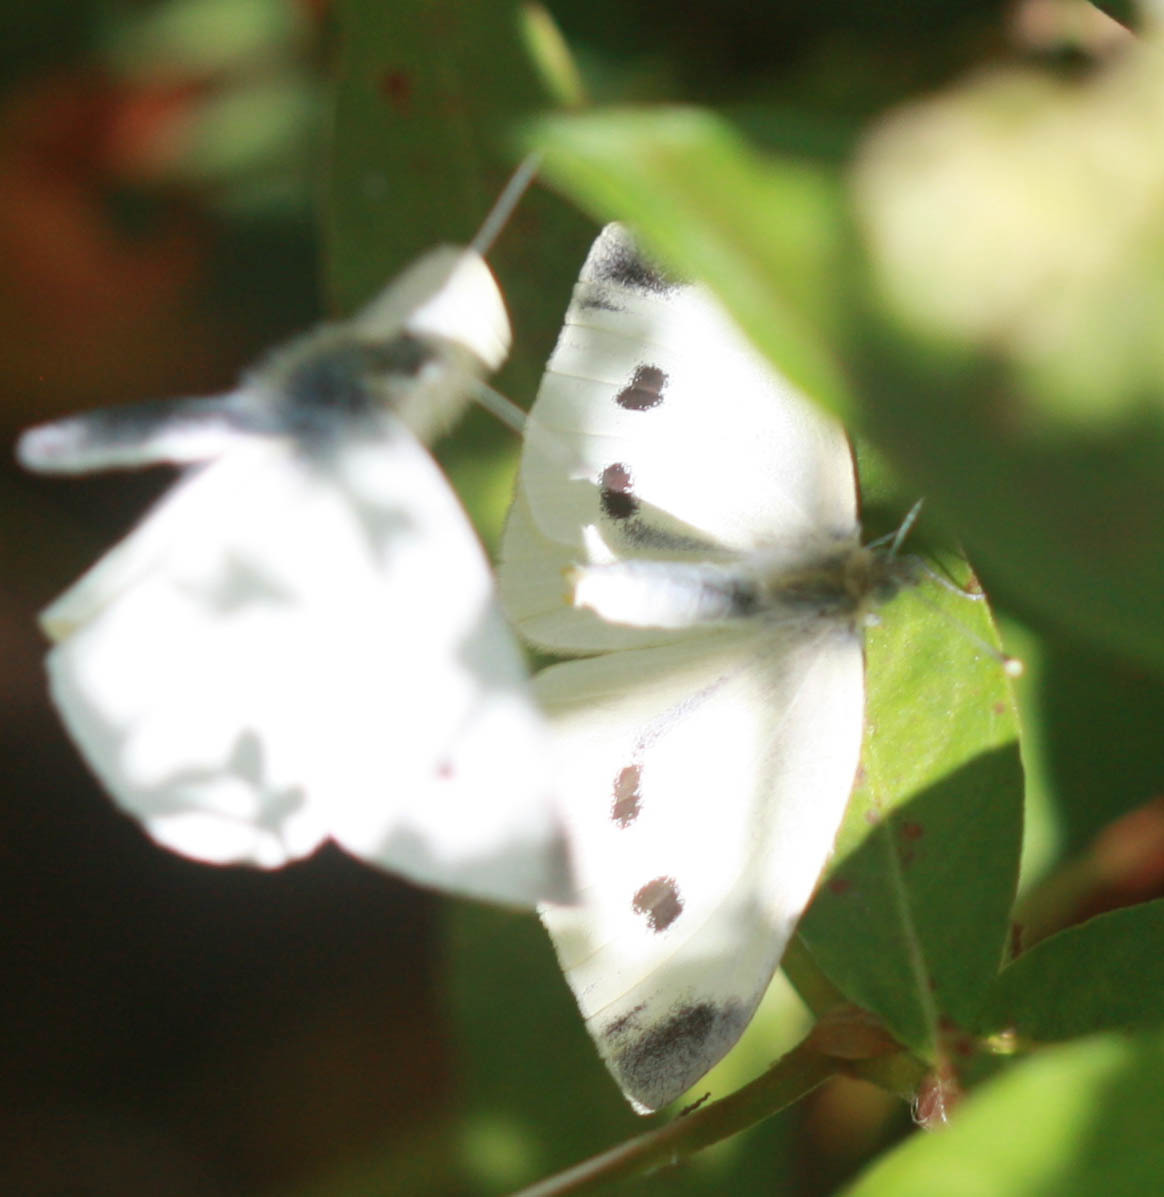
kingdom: Animalia
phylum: Arthropoda
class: Insecta
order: Lepidoptera
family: Pieridae
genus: Pieris
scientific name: Pieris rapae
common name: Small white
